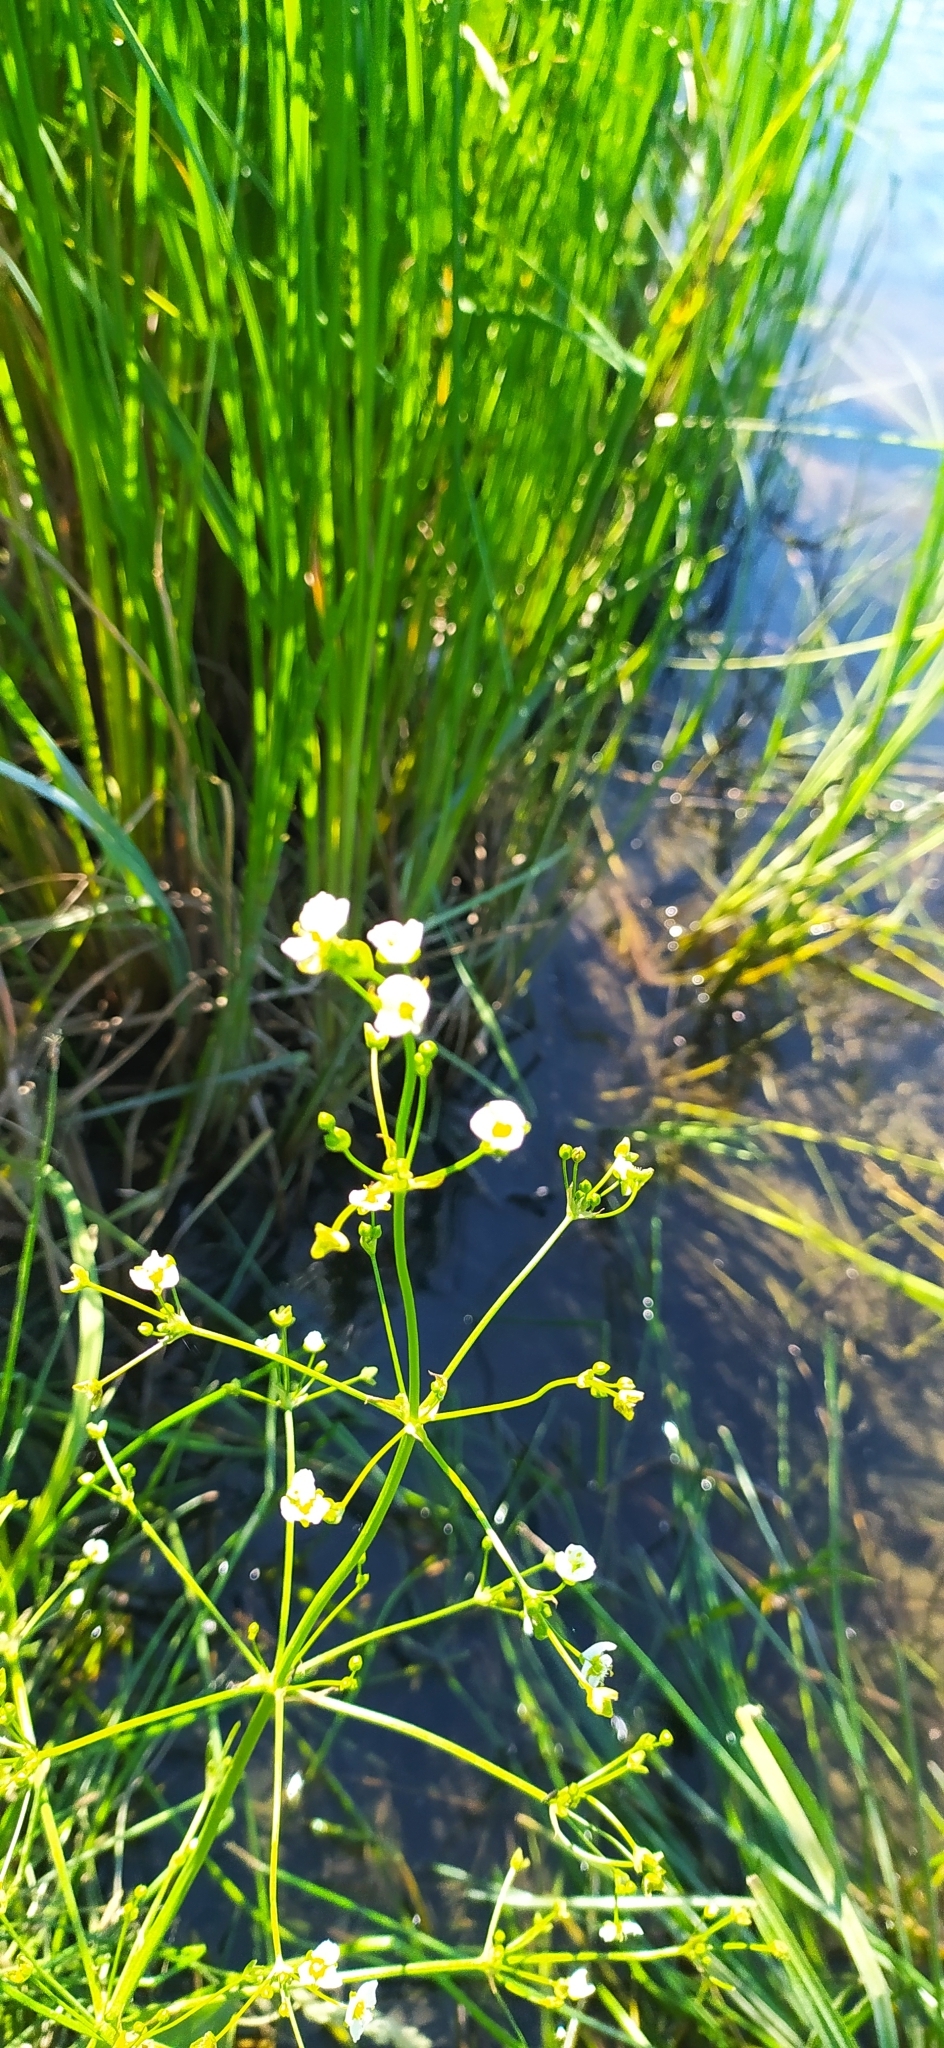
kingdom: Plantae
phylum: Tracheophyta
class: Liliopsida
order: Alismatales
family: Alismataceae
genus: Alisma
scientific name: Alisma plantago-aquatica
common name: Water-plantain
